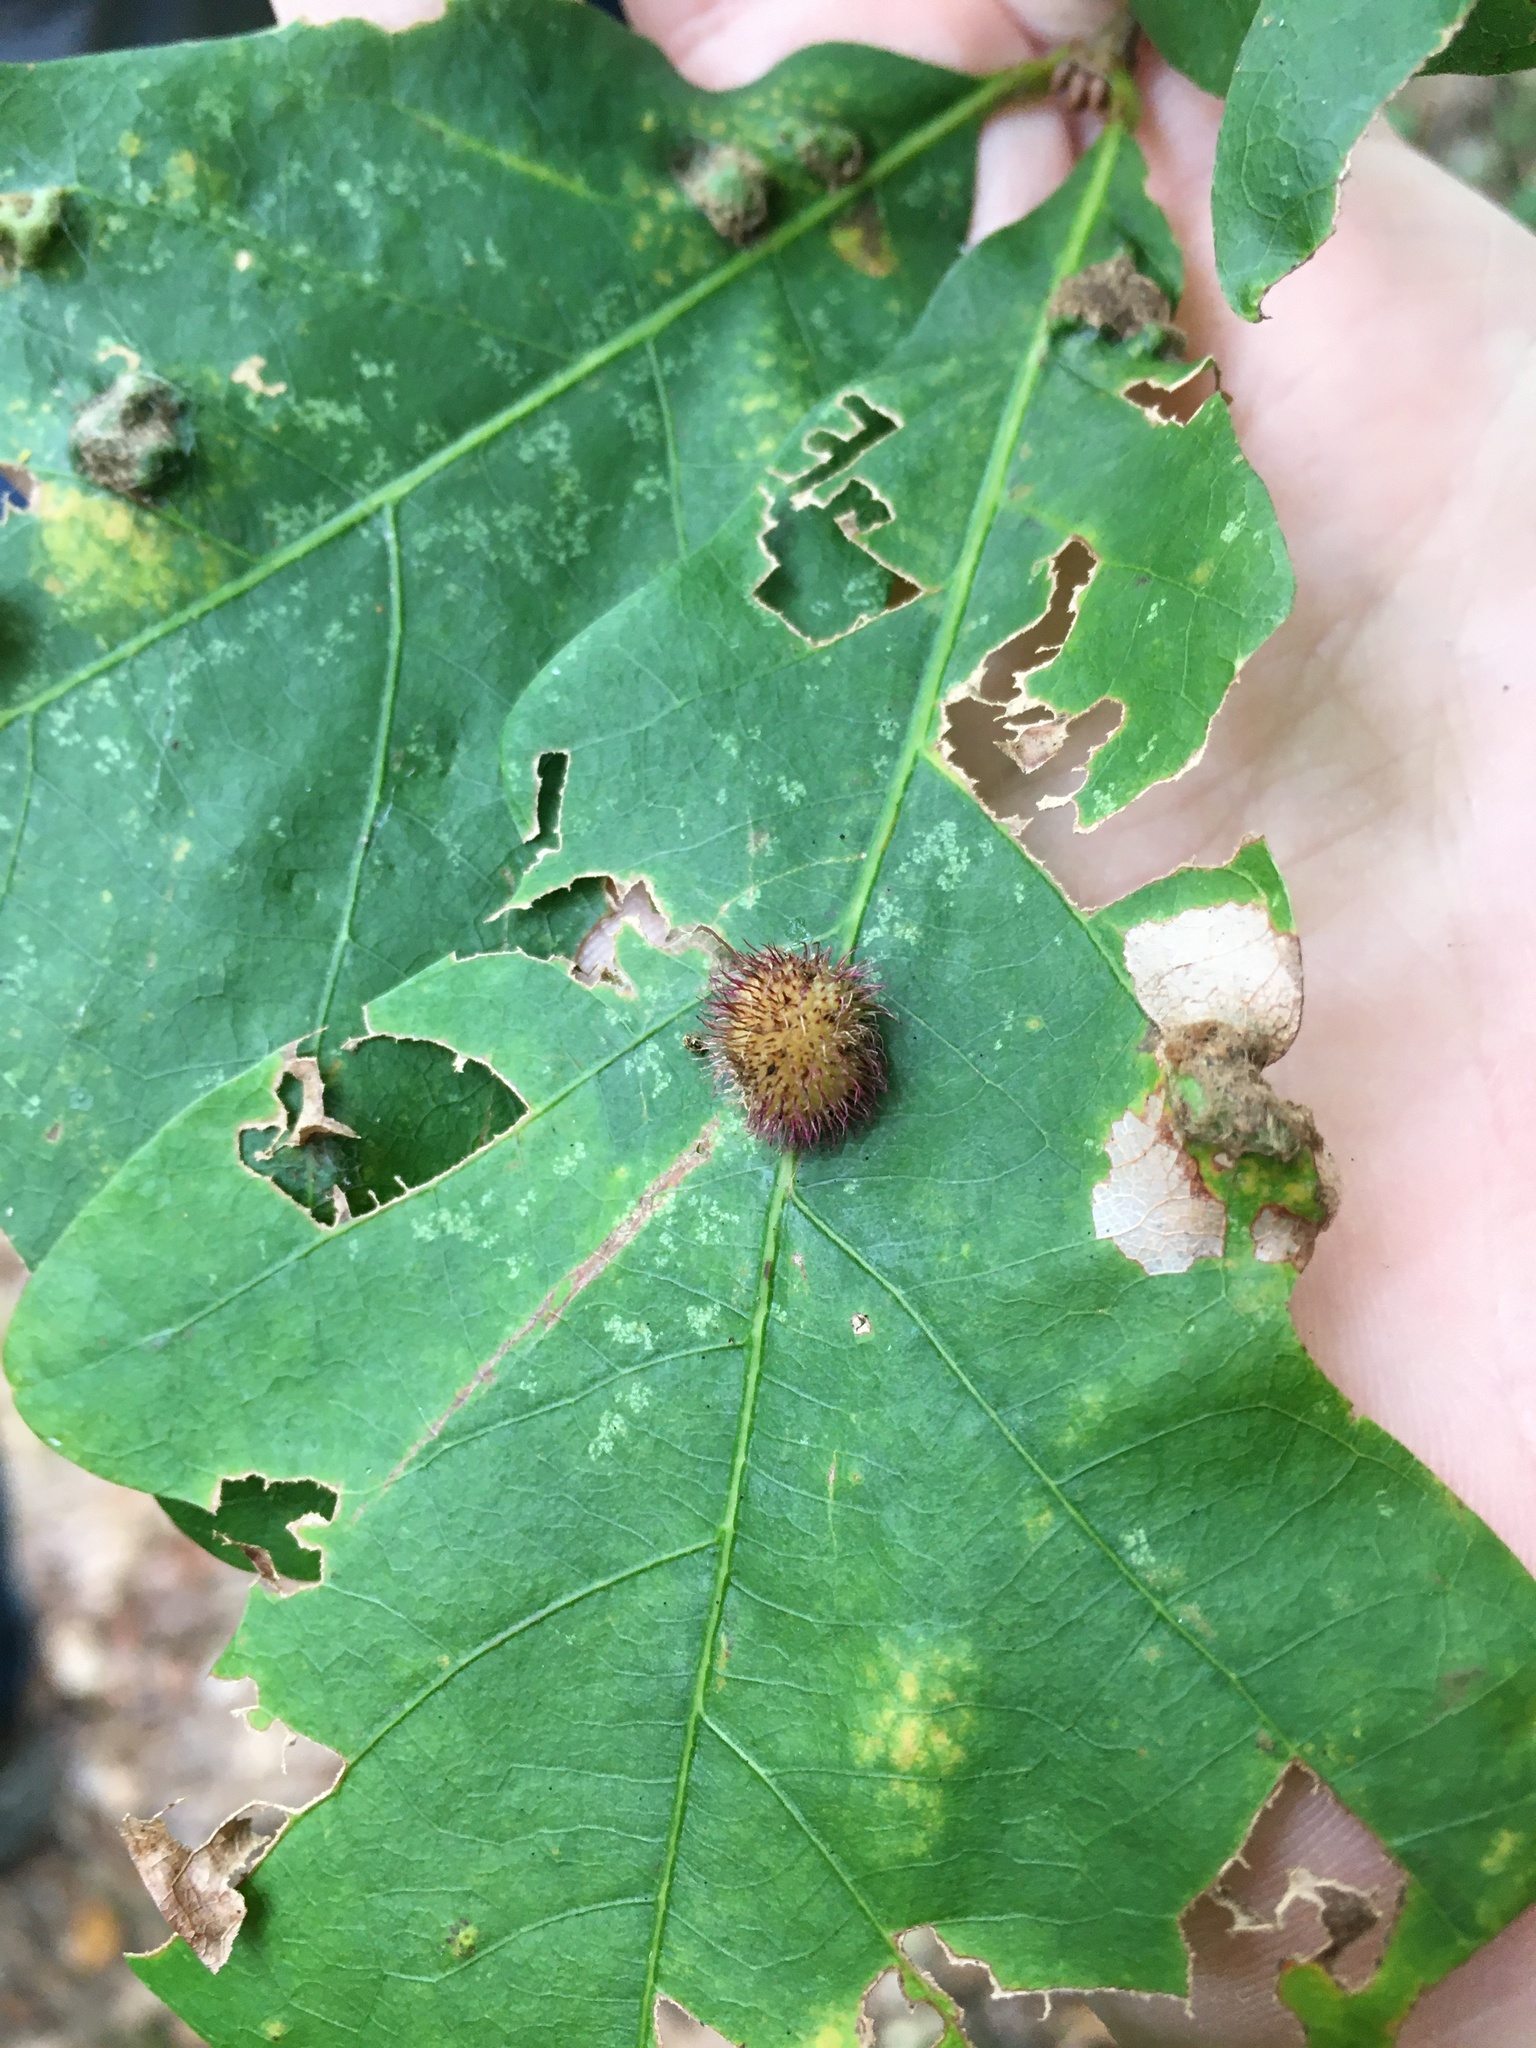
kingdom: Animalia
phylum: Arthropoda
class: Insecta
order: Hymenoptera
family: Cynipidae
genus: Acraspis
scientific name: Acraspis erinacei
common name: Hedgehog gall wasp
